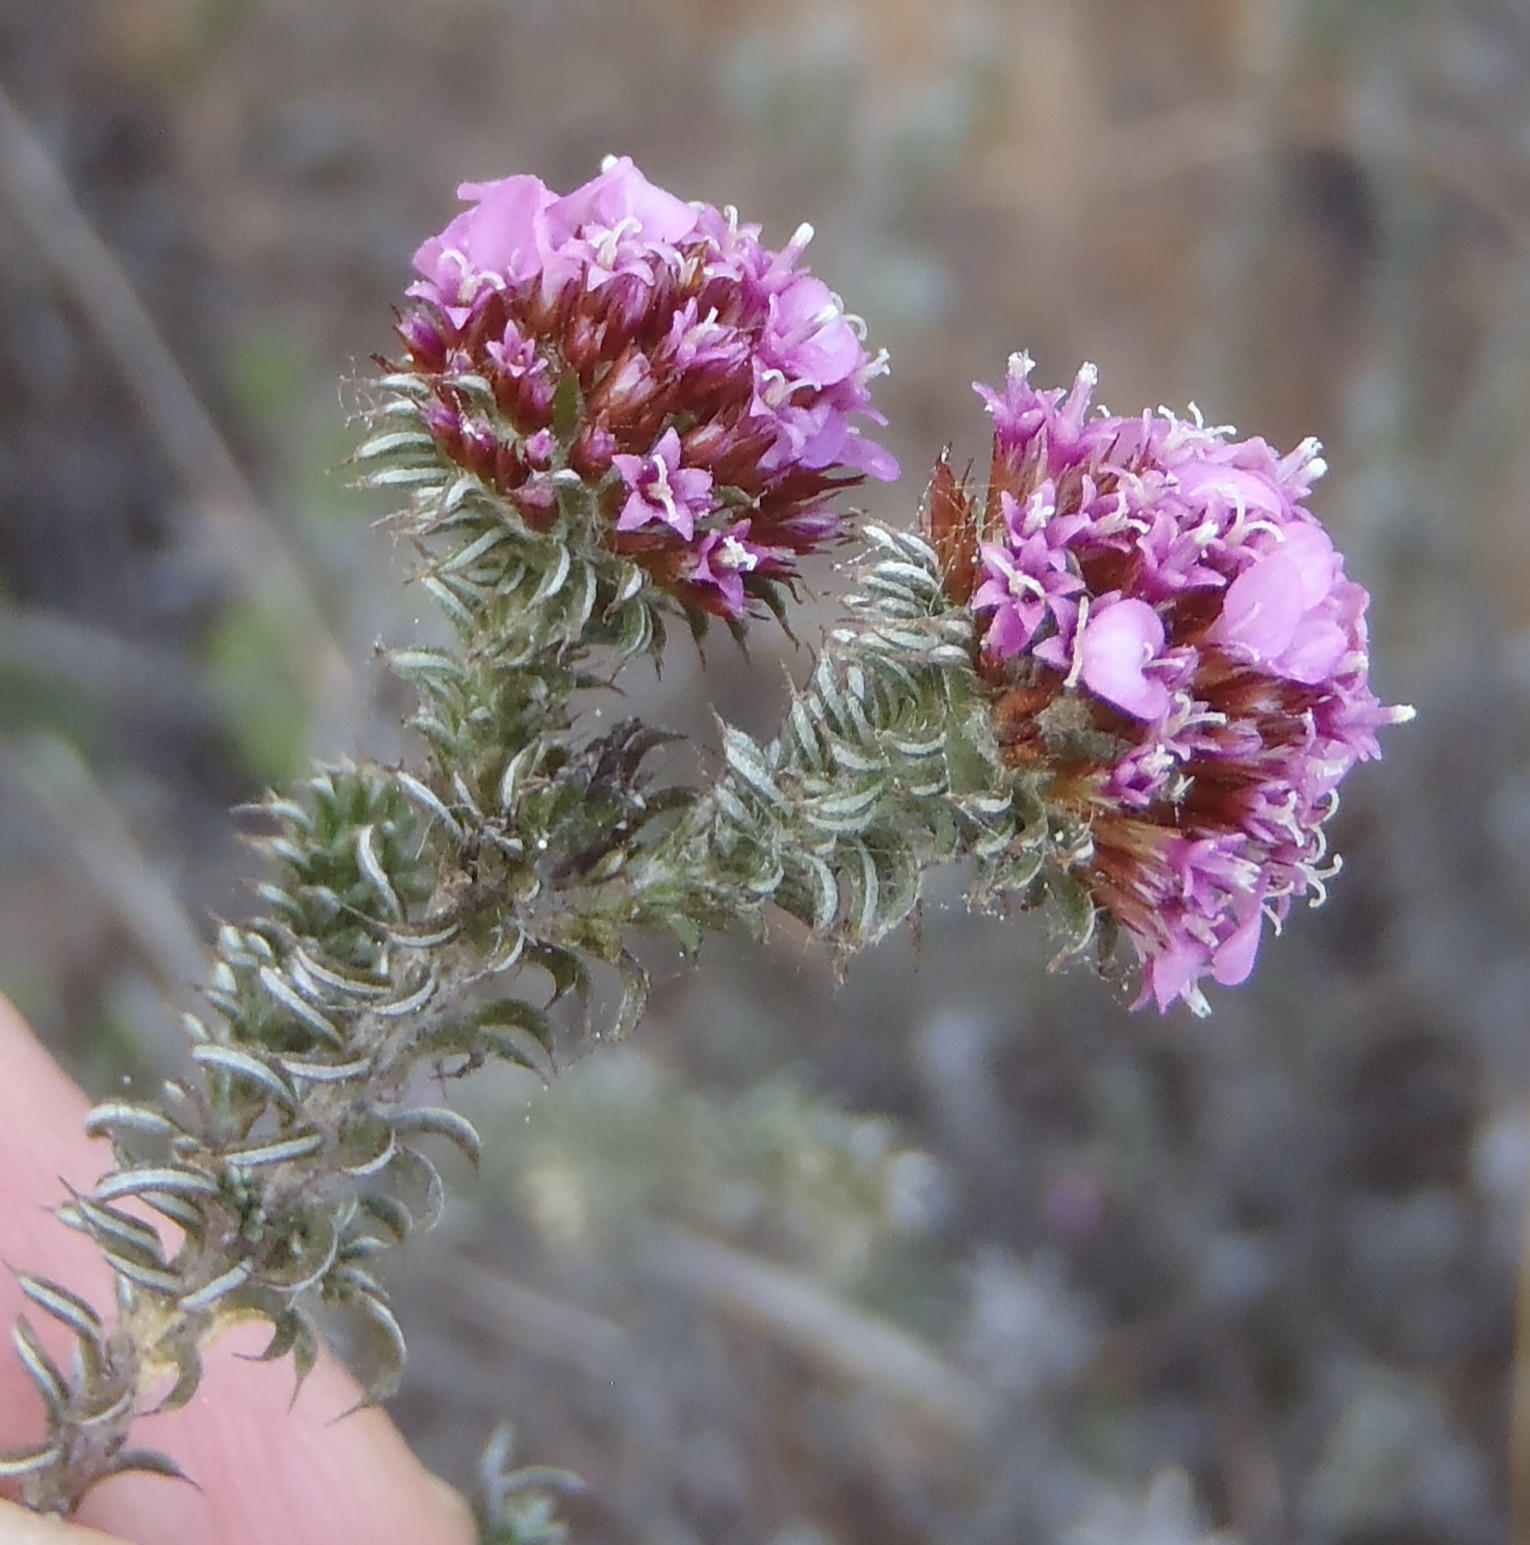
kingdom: Plantae
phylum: Tracheophyta
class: Magnoliopsida
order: Asterales
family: Asteraceae
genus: Disparago
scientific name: Disparago tortilis
